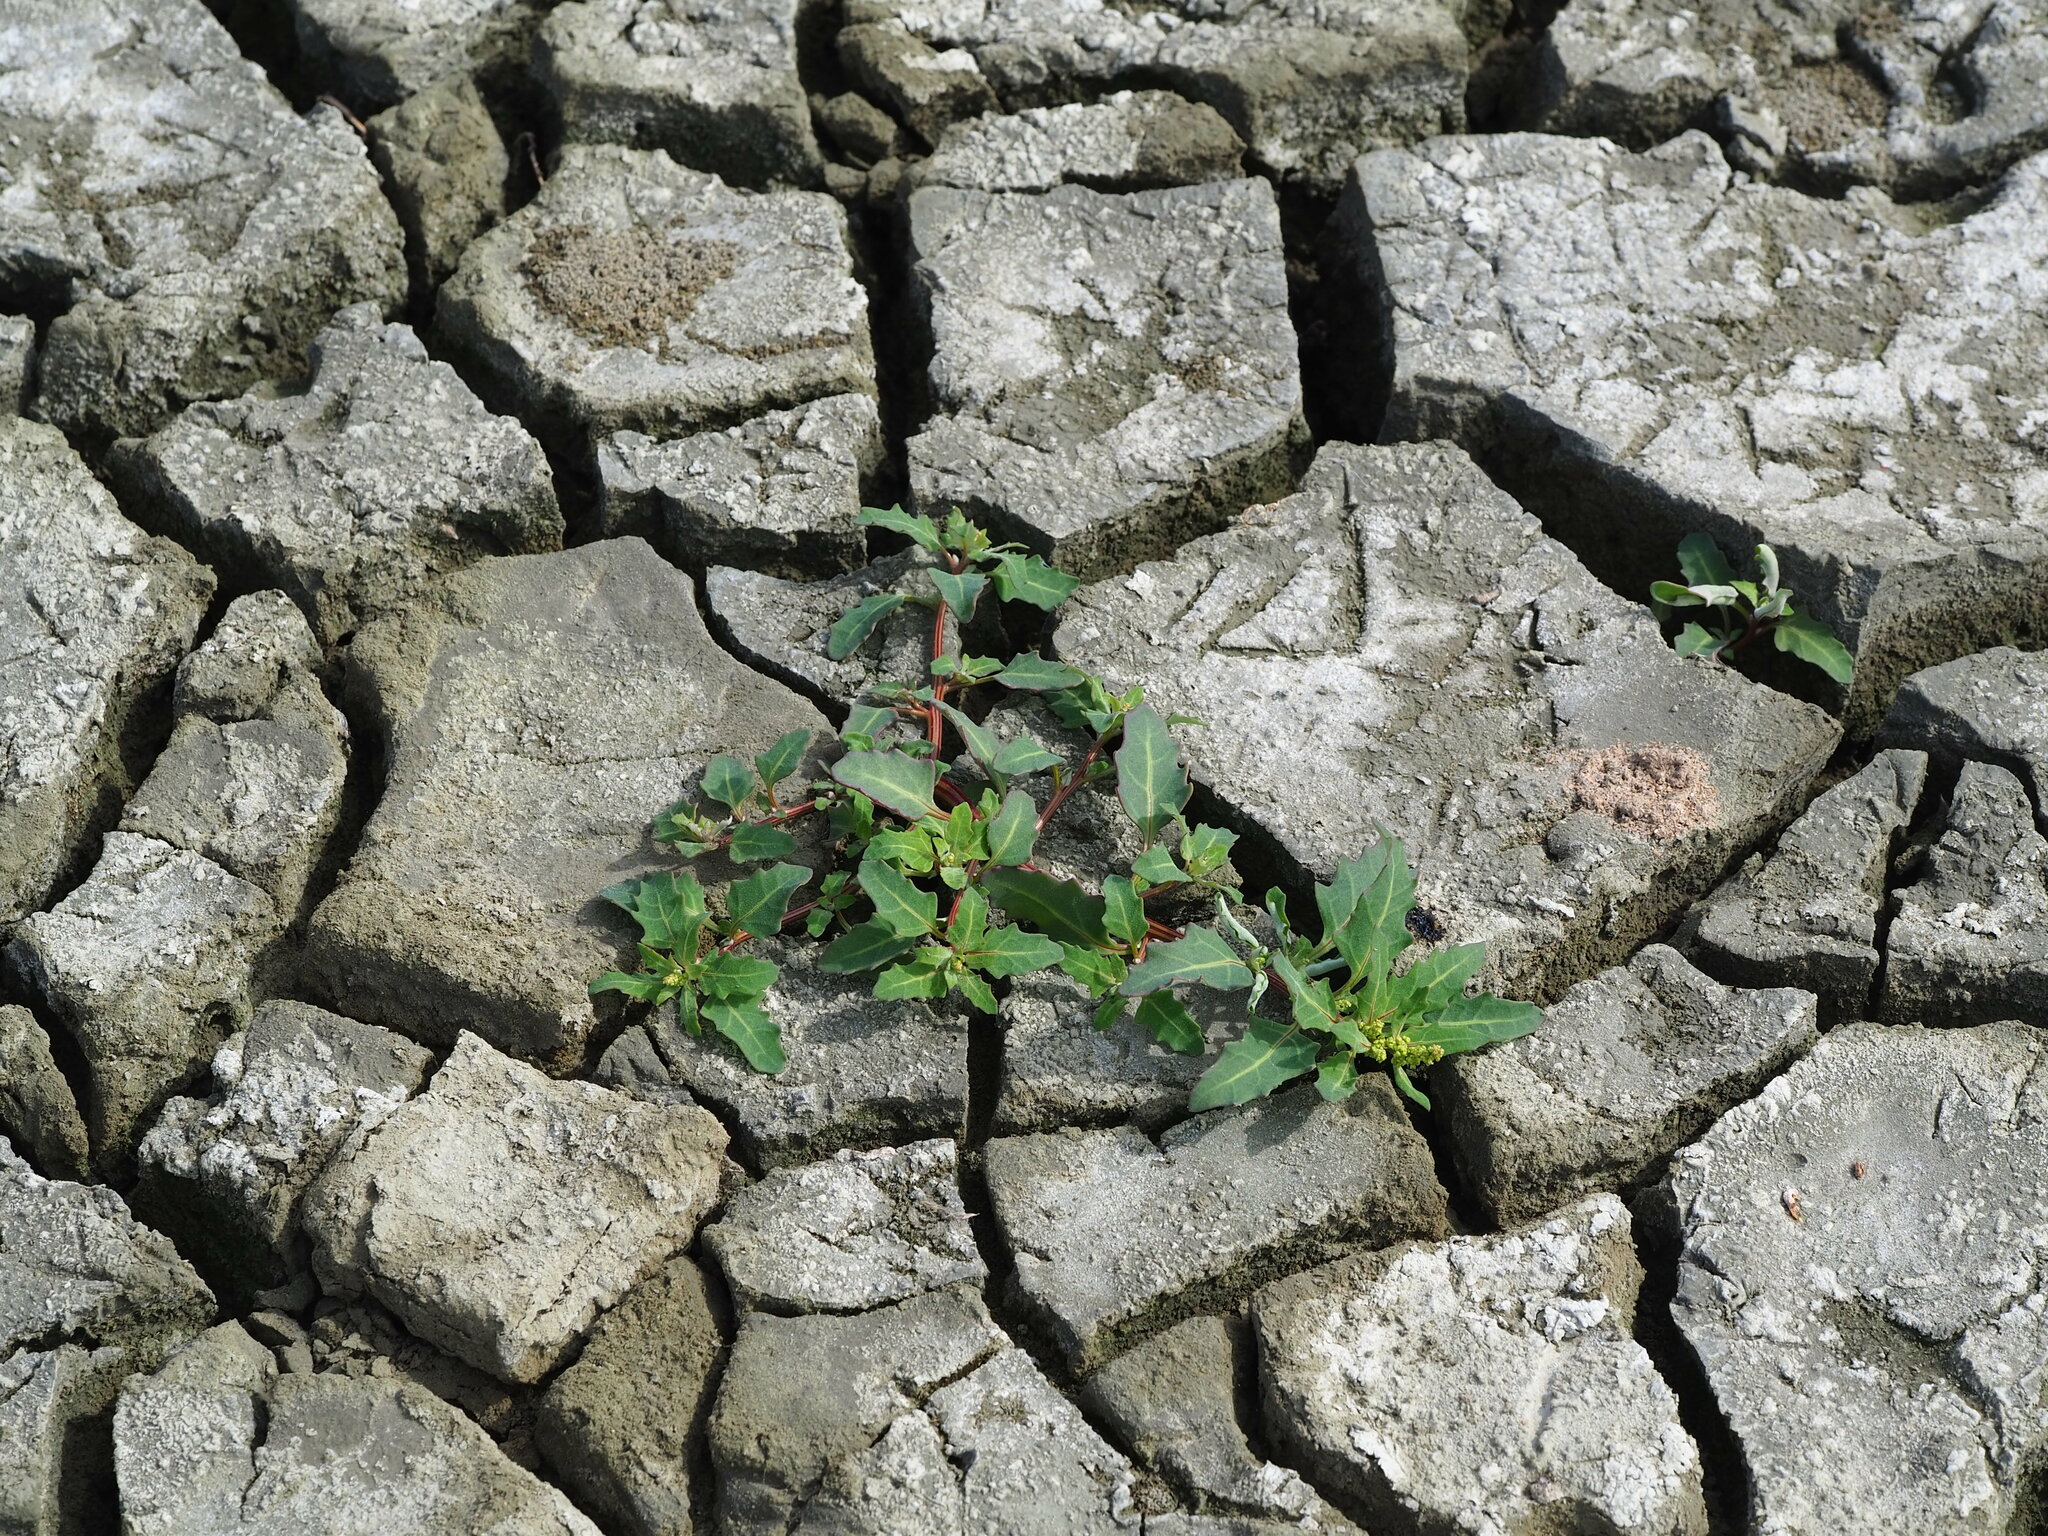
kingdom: Plantae
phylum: Tracheophyta
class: Magnoliopsida
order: Caryophyllales
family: Amaranthaceae
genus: Oxybasis
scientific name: Oxybasis glauca
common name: Glaucous goosefoot
